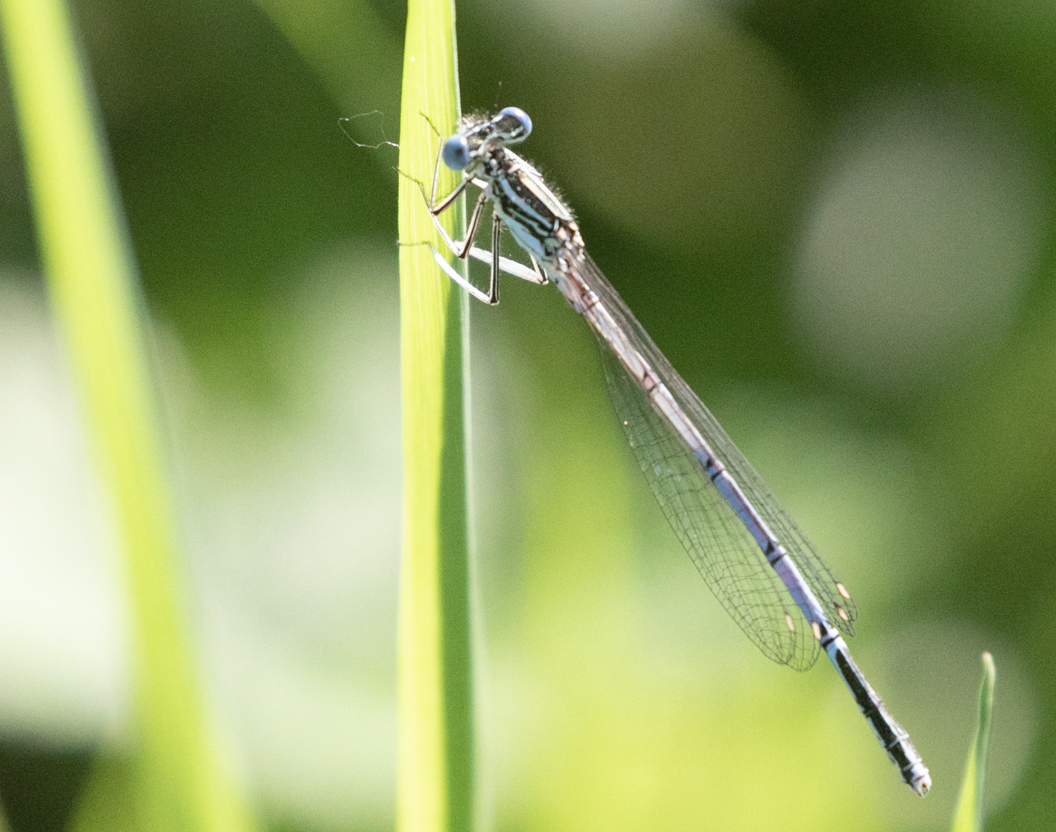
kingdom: Animalia
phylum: Arthropoda
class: Insecta
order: Odonata
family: Platycnemididae
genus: Platycnemis
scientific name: Platycnemis pennipes
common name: White-legged damselfly
